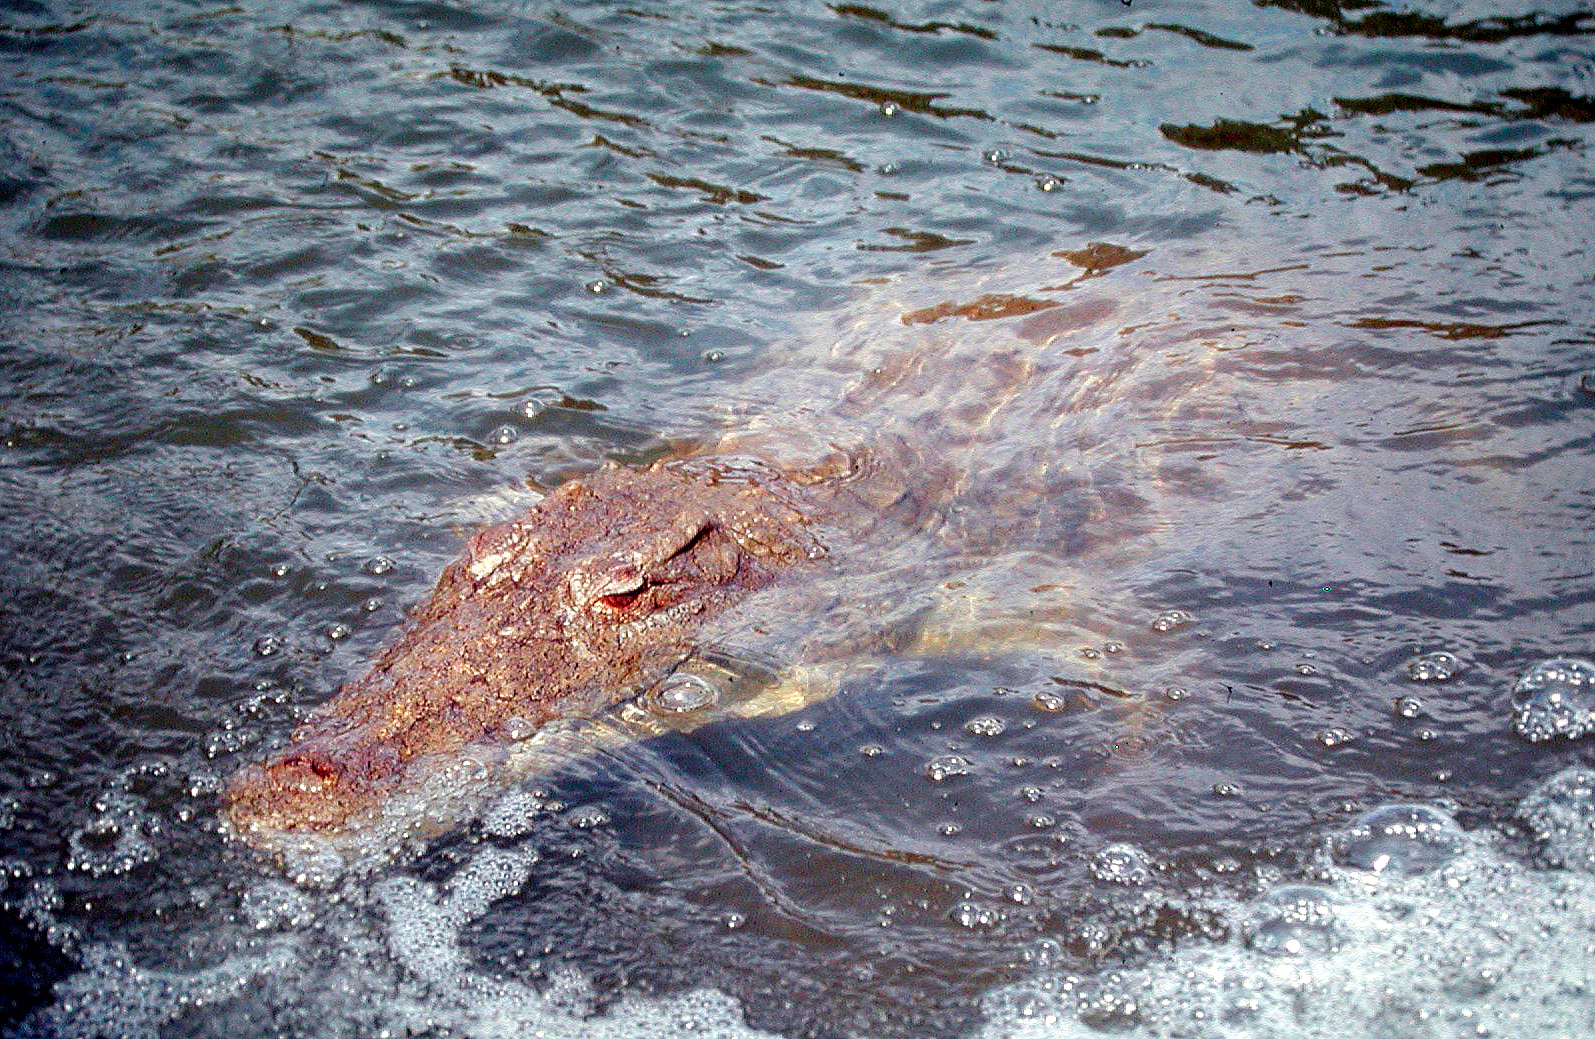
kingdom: Animalia
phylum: Chordata
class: Crocodylia
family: Crocodylidae
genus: Crocodylus
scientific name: Crocodylus niloticus
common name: Nile crocodile
